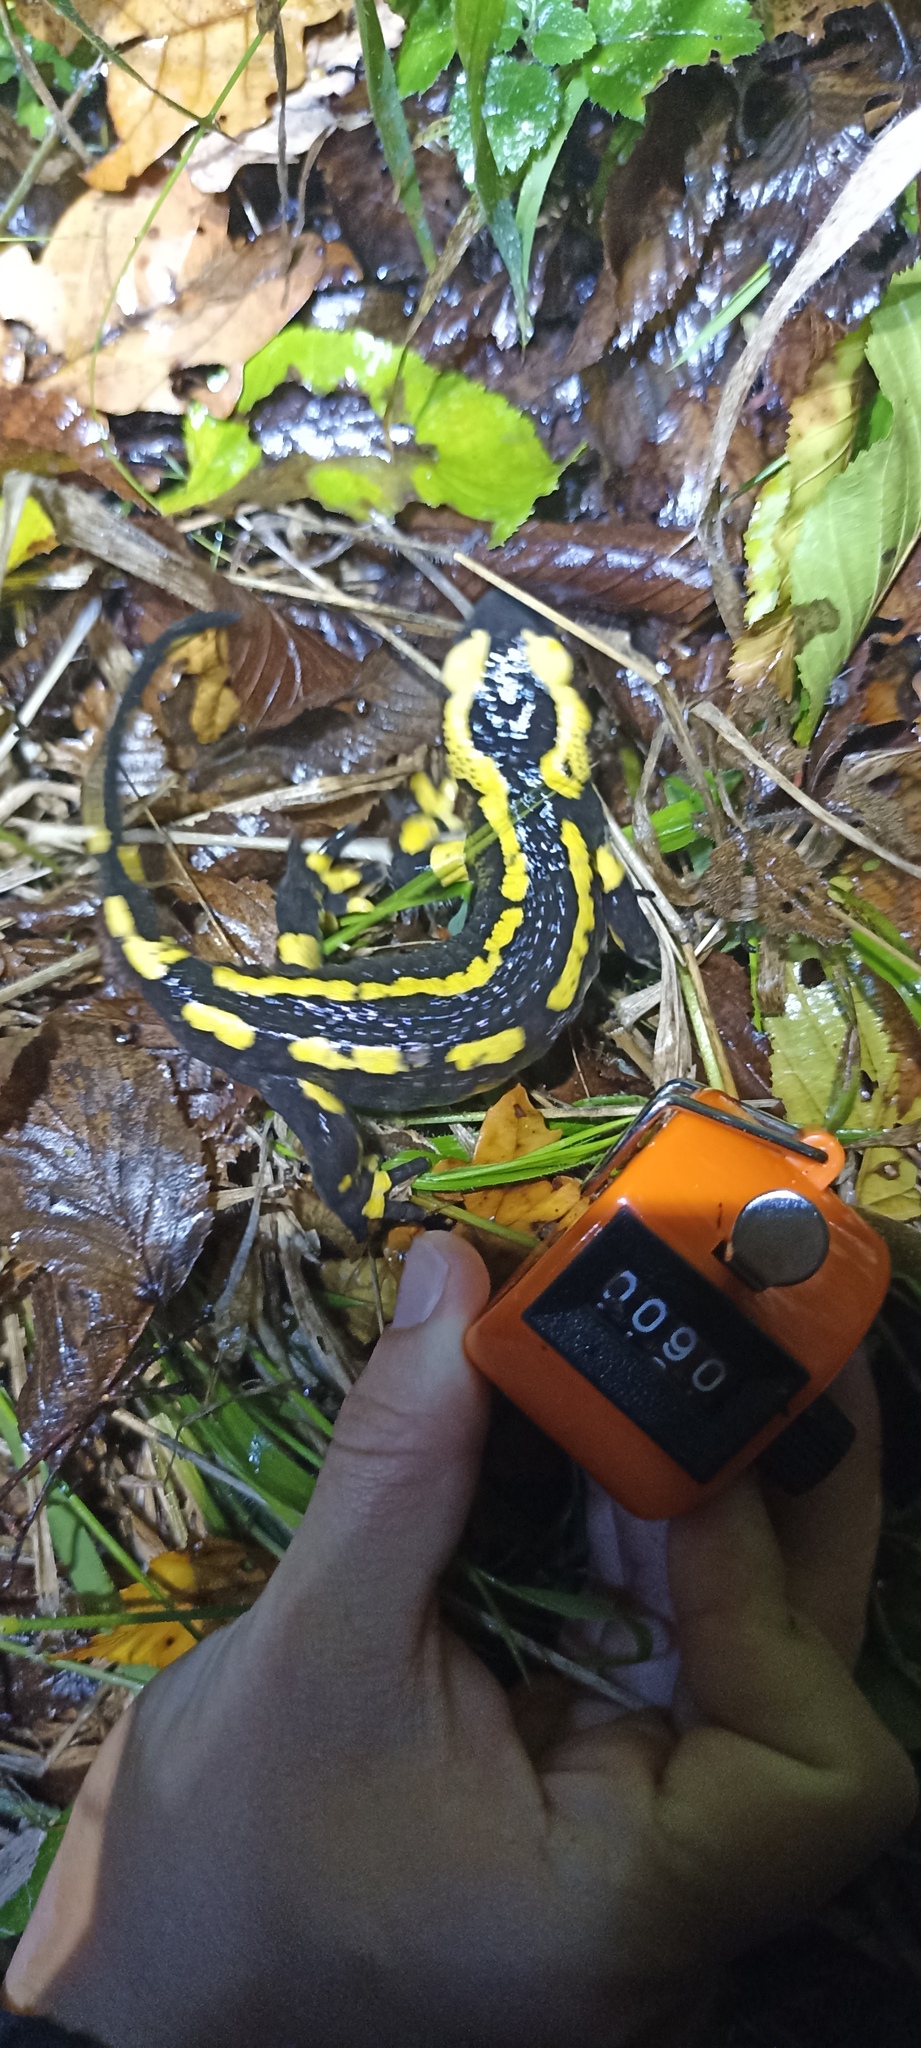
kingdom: Animalia
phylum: Chordata
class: Amphibia
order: Caudata
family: Salamandridae
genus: Salamandra
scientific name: Salamandra salamandra
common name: Fire salamander
